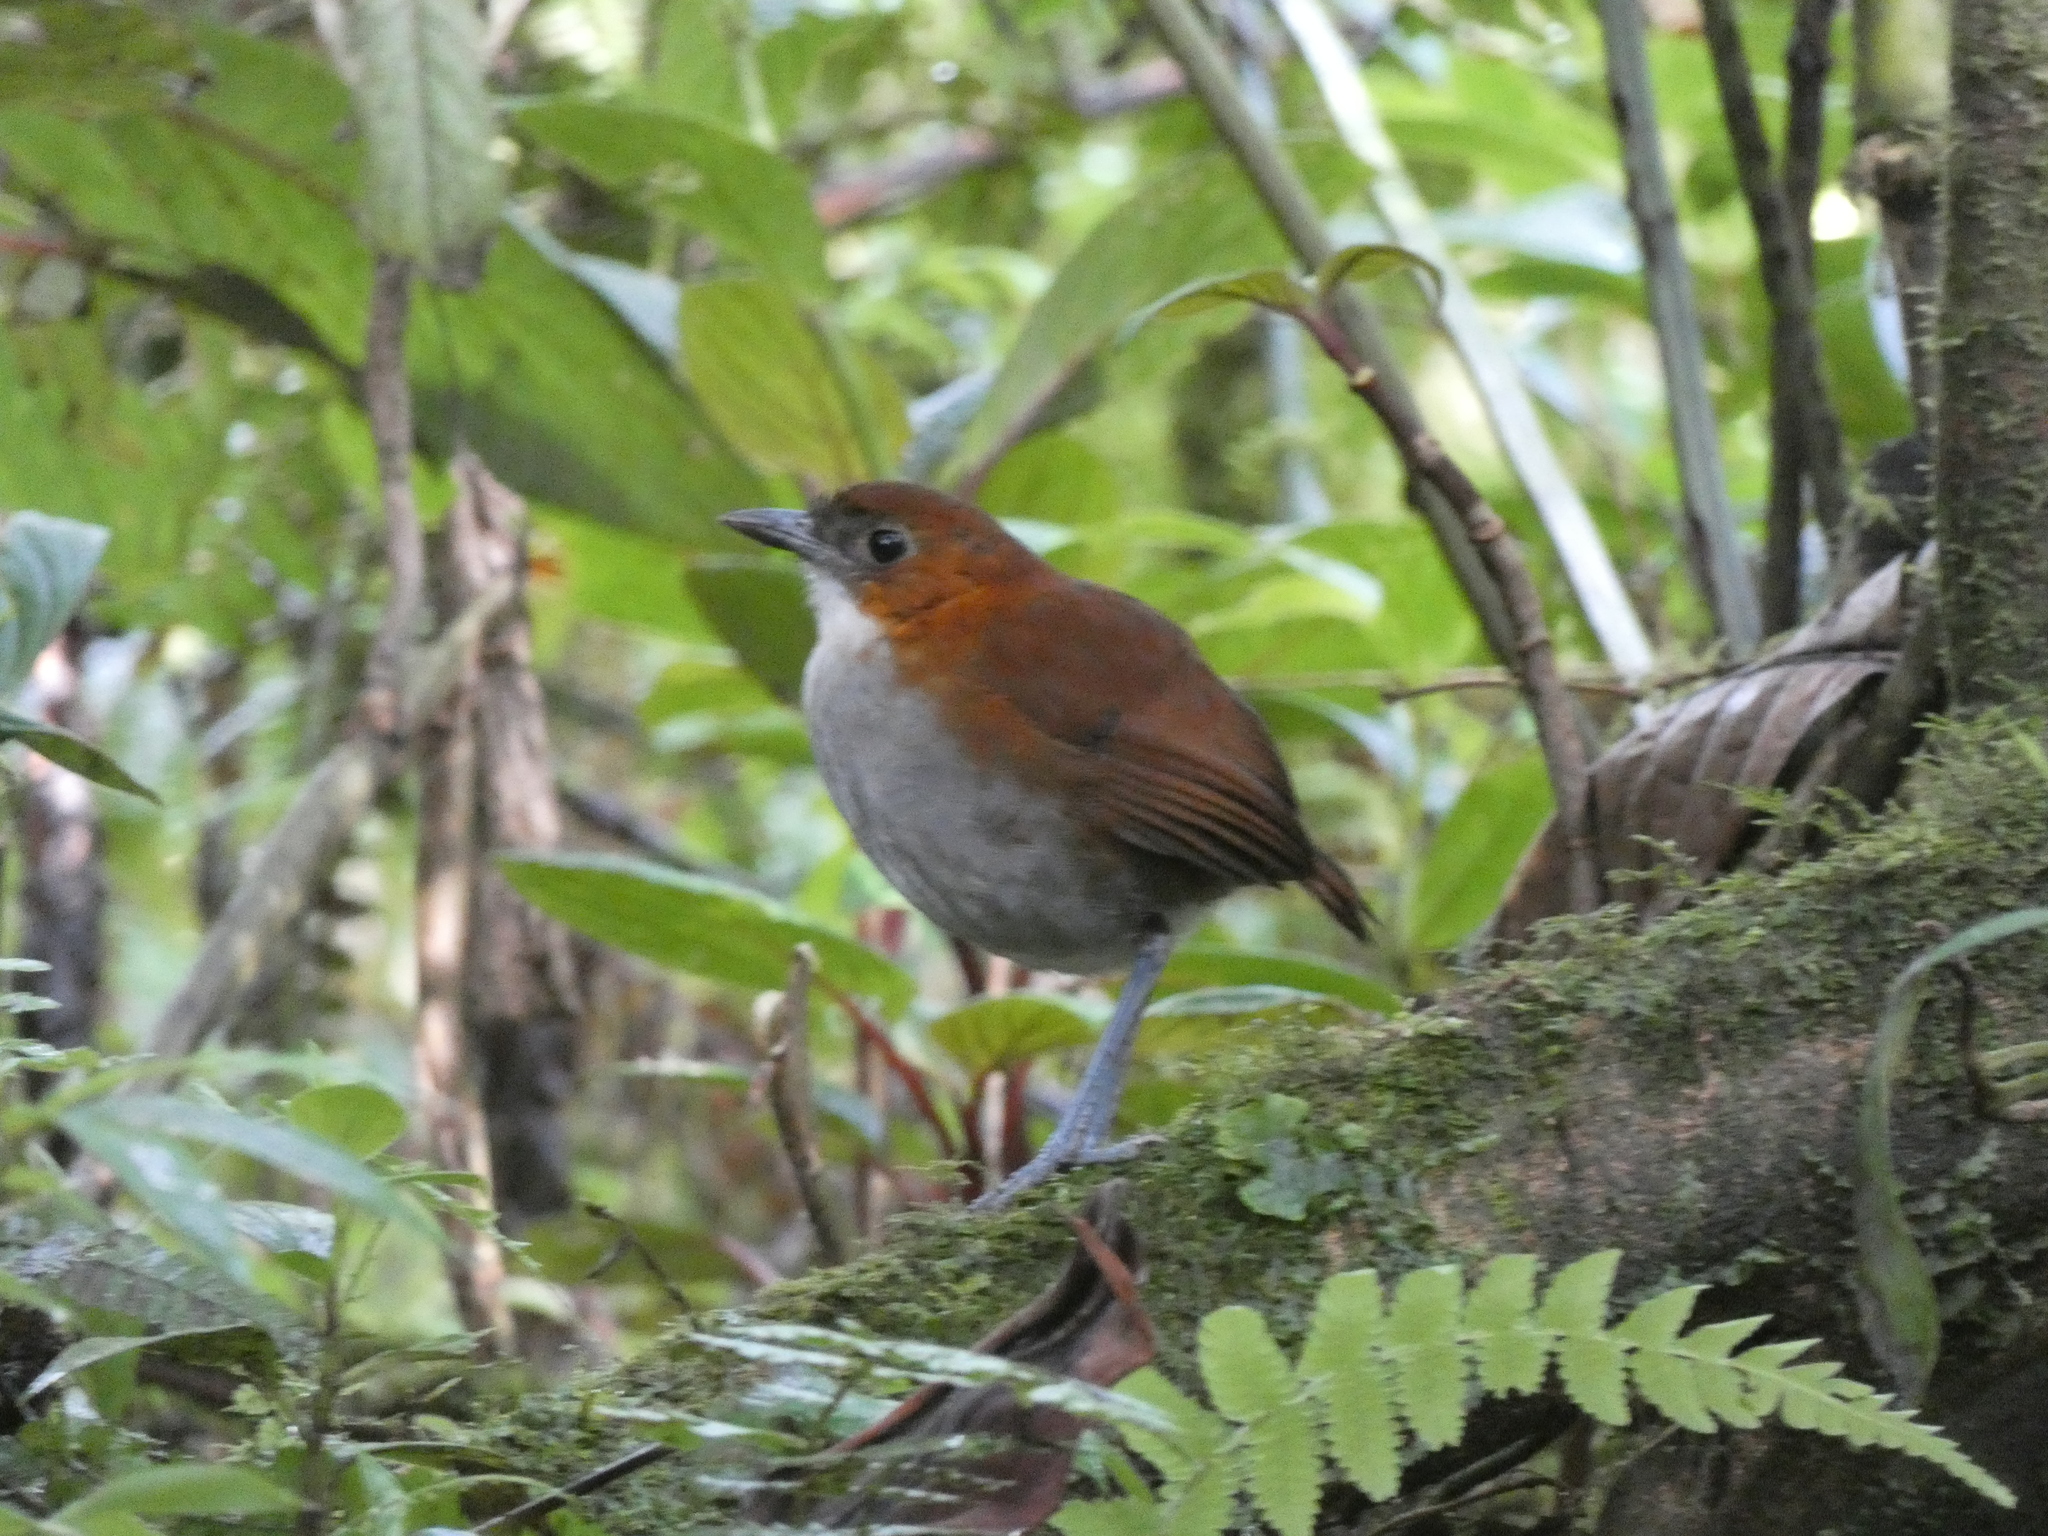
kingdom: Animalia
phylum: Chordata
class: Aves
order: Passeriformes
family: Grallariidae
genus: Grallaria
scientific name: Grallaria hypoleuca
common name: White-bellied antpitta
